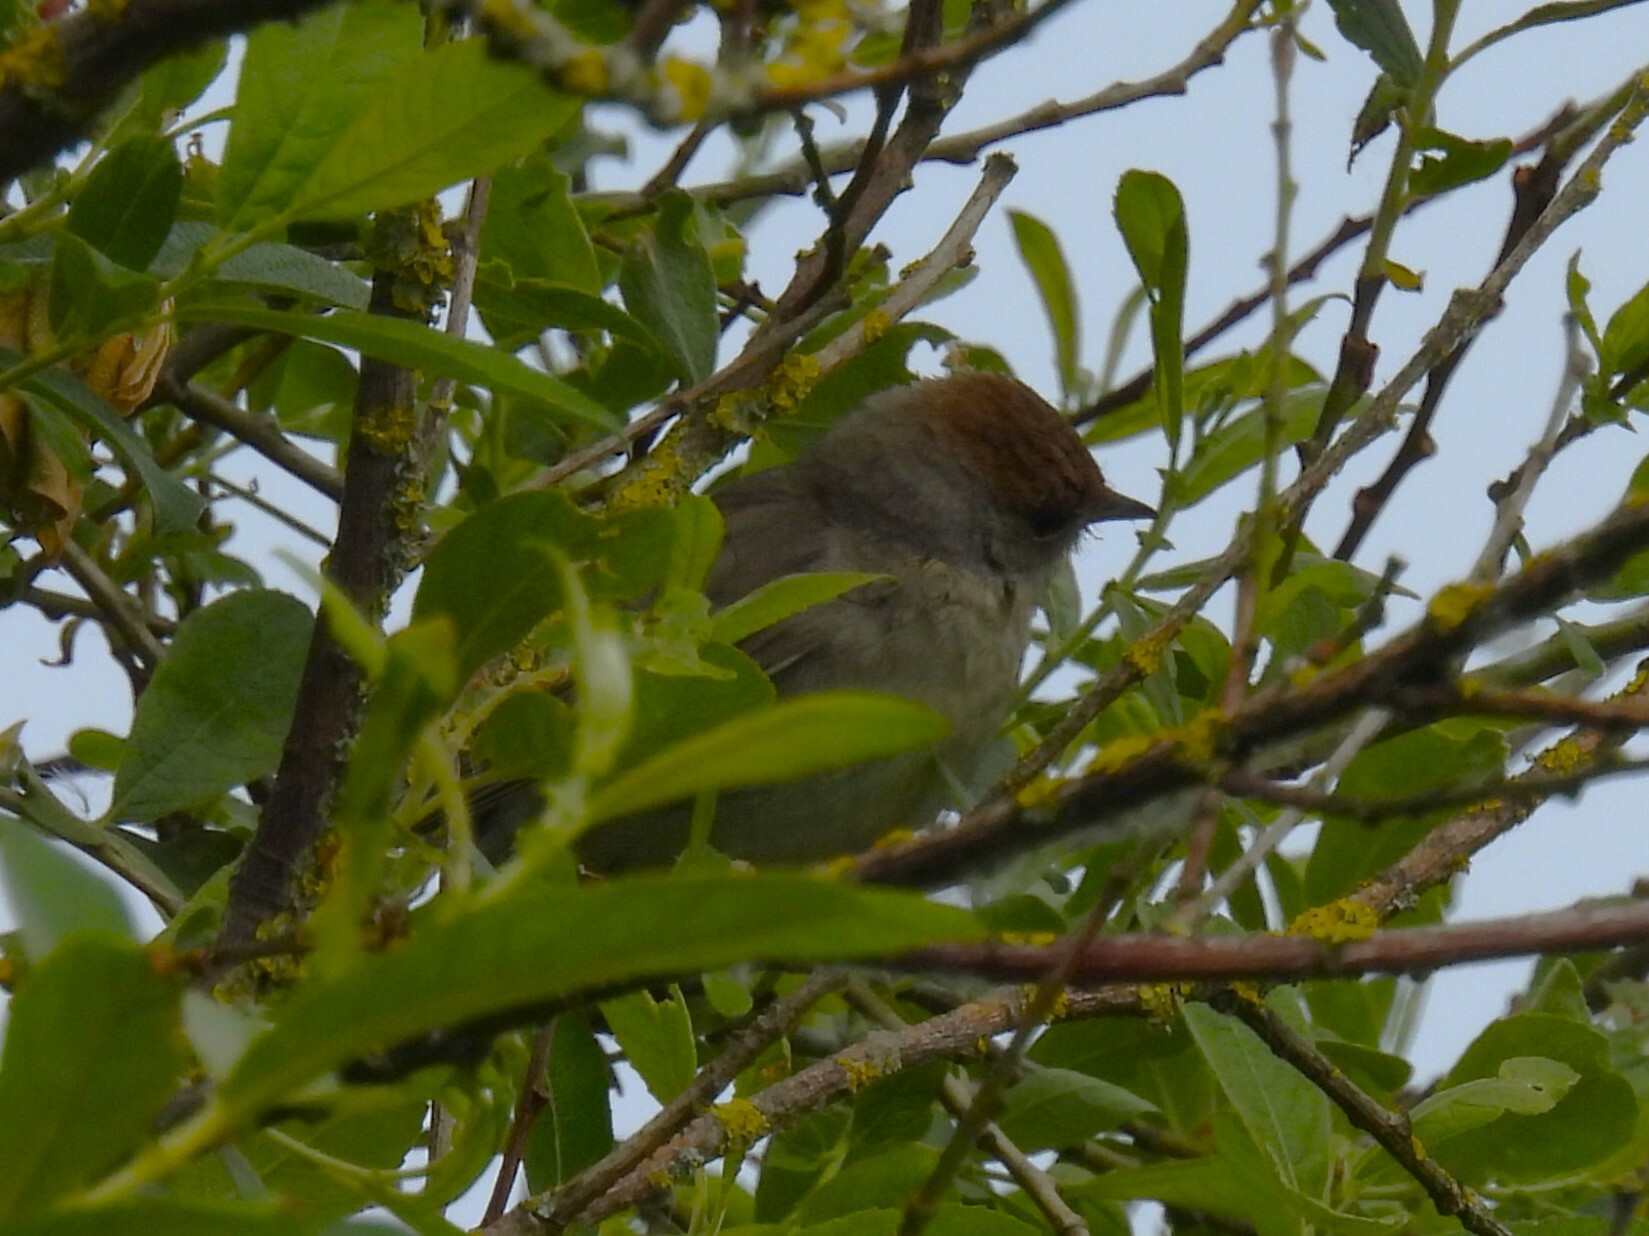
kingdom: Animalia
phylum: Chordata
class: Aves
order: Passeriformes
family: Sylviidae
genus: Sylvia
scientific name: Sylvia atricapilla
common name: Eurasian blackcap
